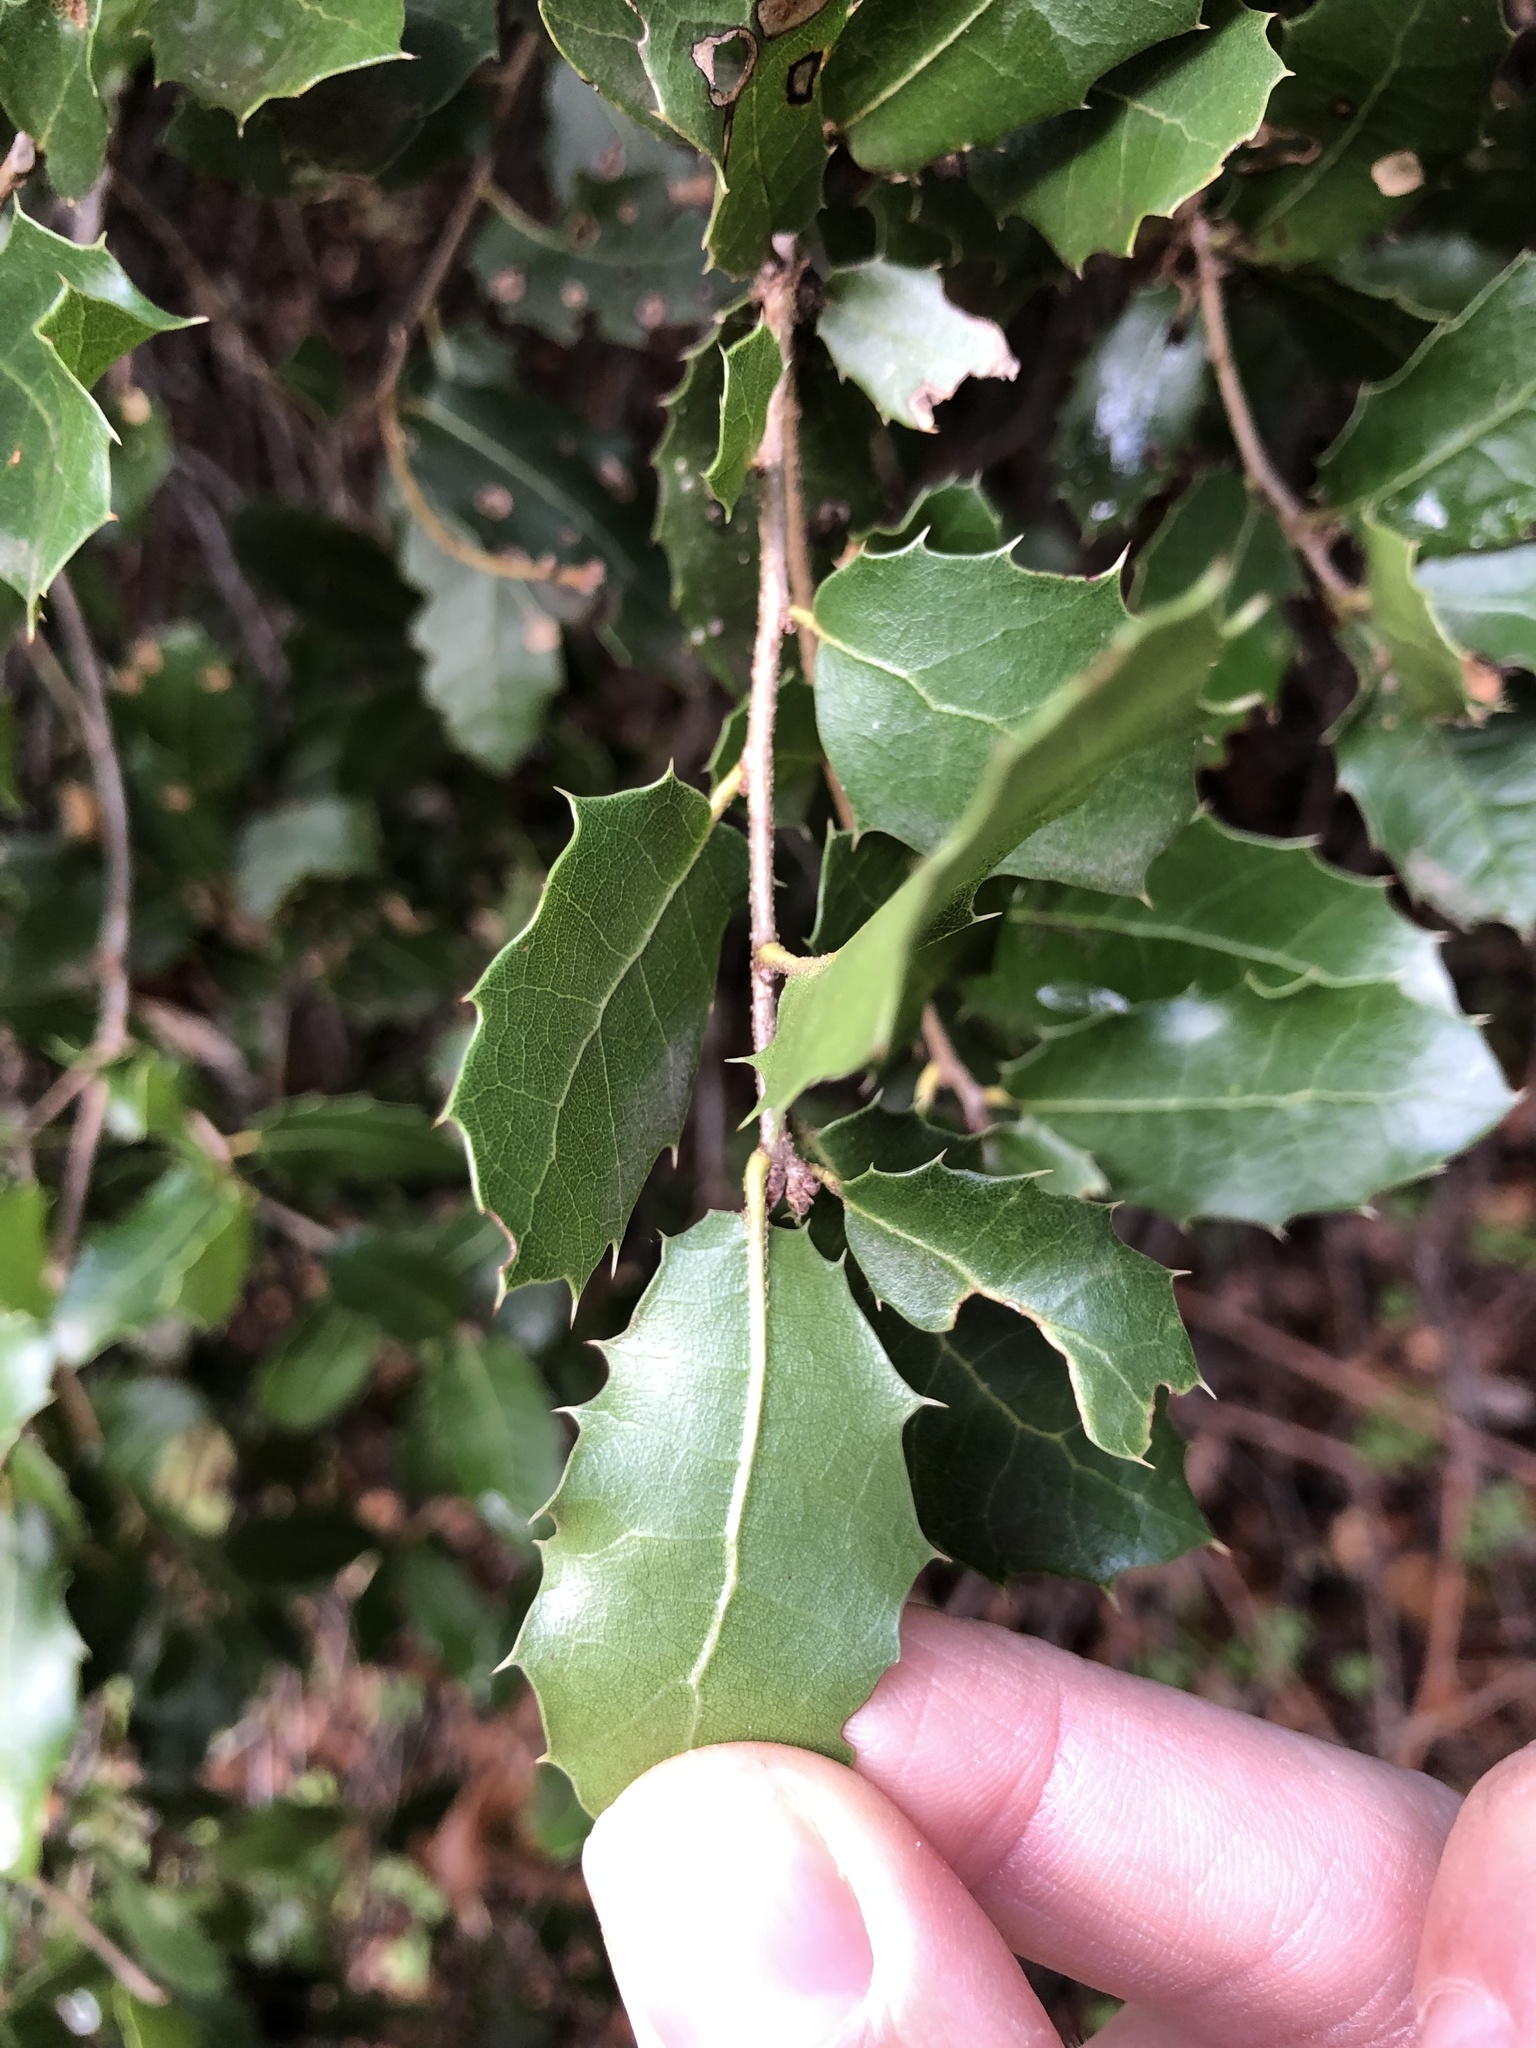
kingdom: Plantae
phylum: Tracheophyta
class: Magnoliopsida
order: Fagales
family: Fagaceae
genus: Quercus
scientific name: Quercus coccifera
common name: Kermes oak
